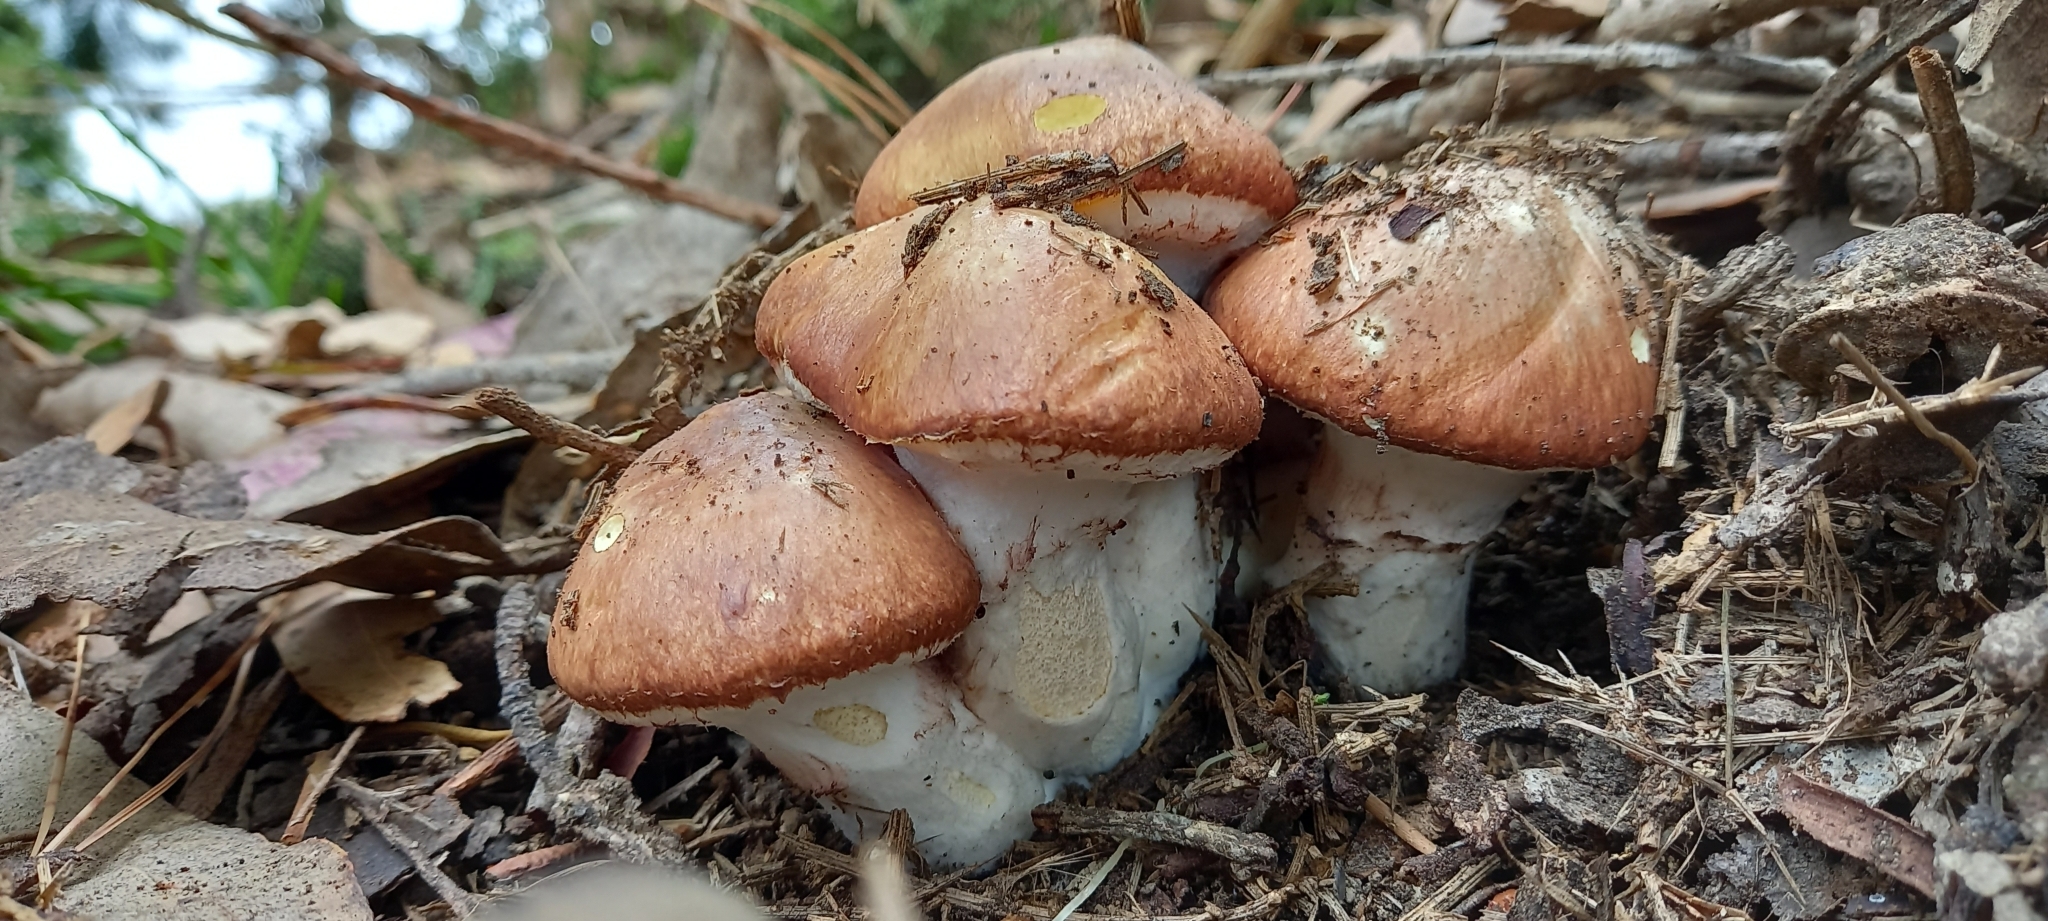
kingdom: Fungi
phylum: Basidiomycota
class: Agaricomycetes
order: Boletales
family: Suillaceae
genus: Suillus
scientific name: Suillus luteus
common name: Slippery jack
